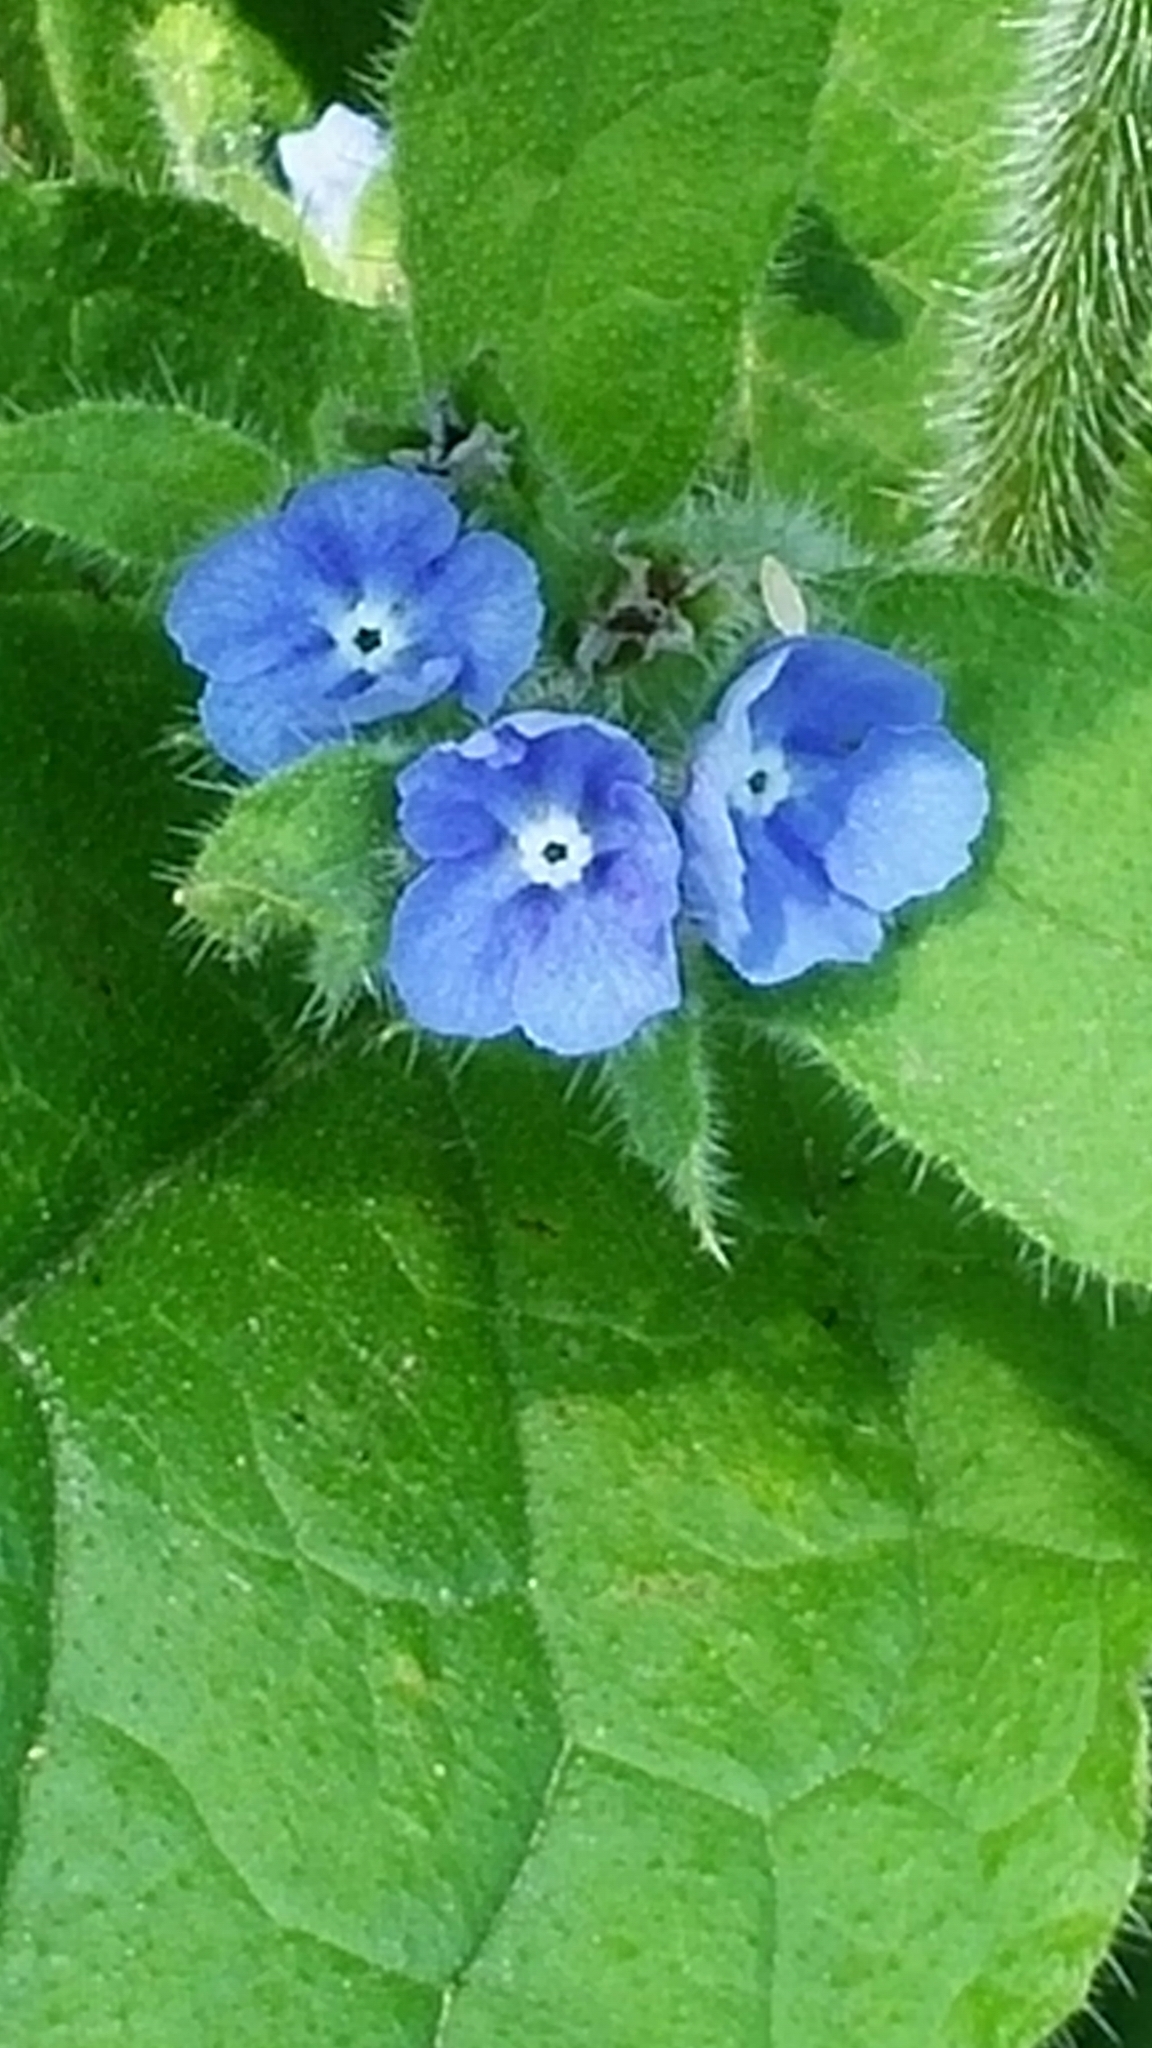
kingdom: Plantae
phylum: Tracheophyta
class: Magnoliopsida
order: Boraginales
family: Boraginaceae
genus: Pentaglottis
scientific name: Pentaglottis sempervirens
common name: Green alkanet
